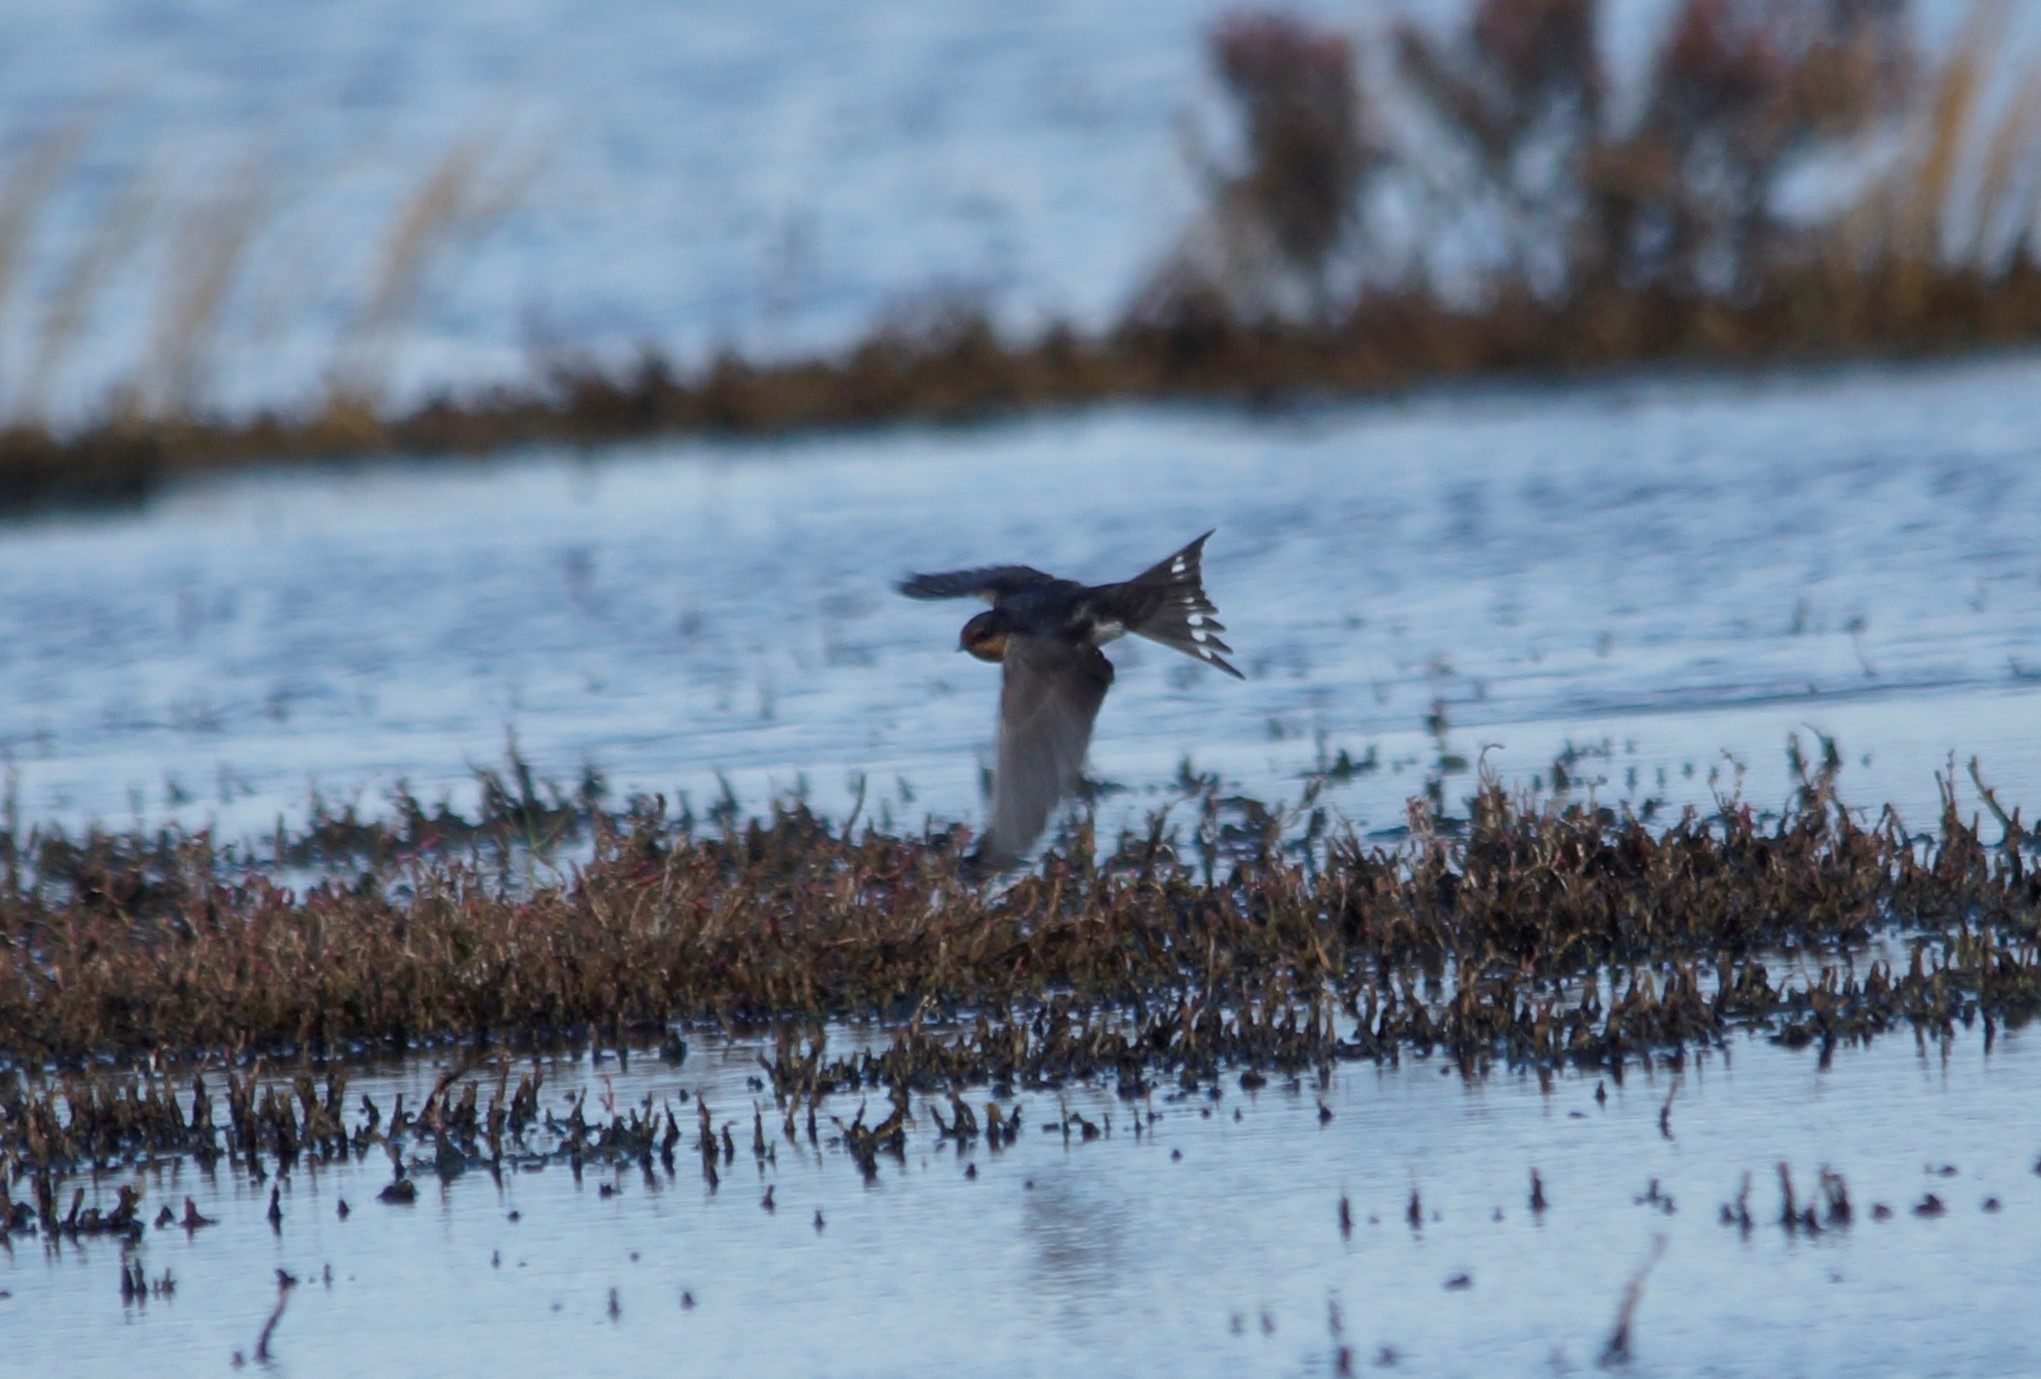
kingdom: Animalia
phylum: Chordata
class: Aves
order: Passeriformes
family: Hirundinidae
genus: Hirundo
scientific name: Hirundo neoxena
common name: Welcome swallow
